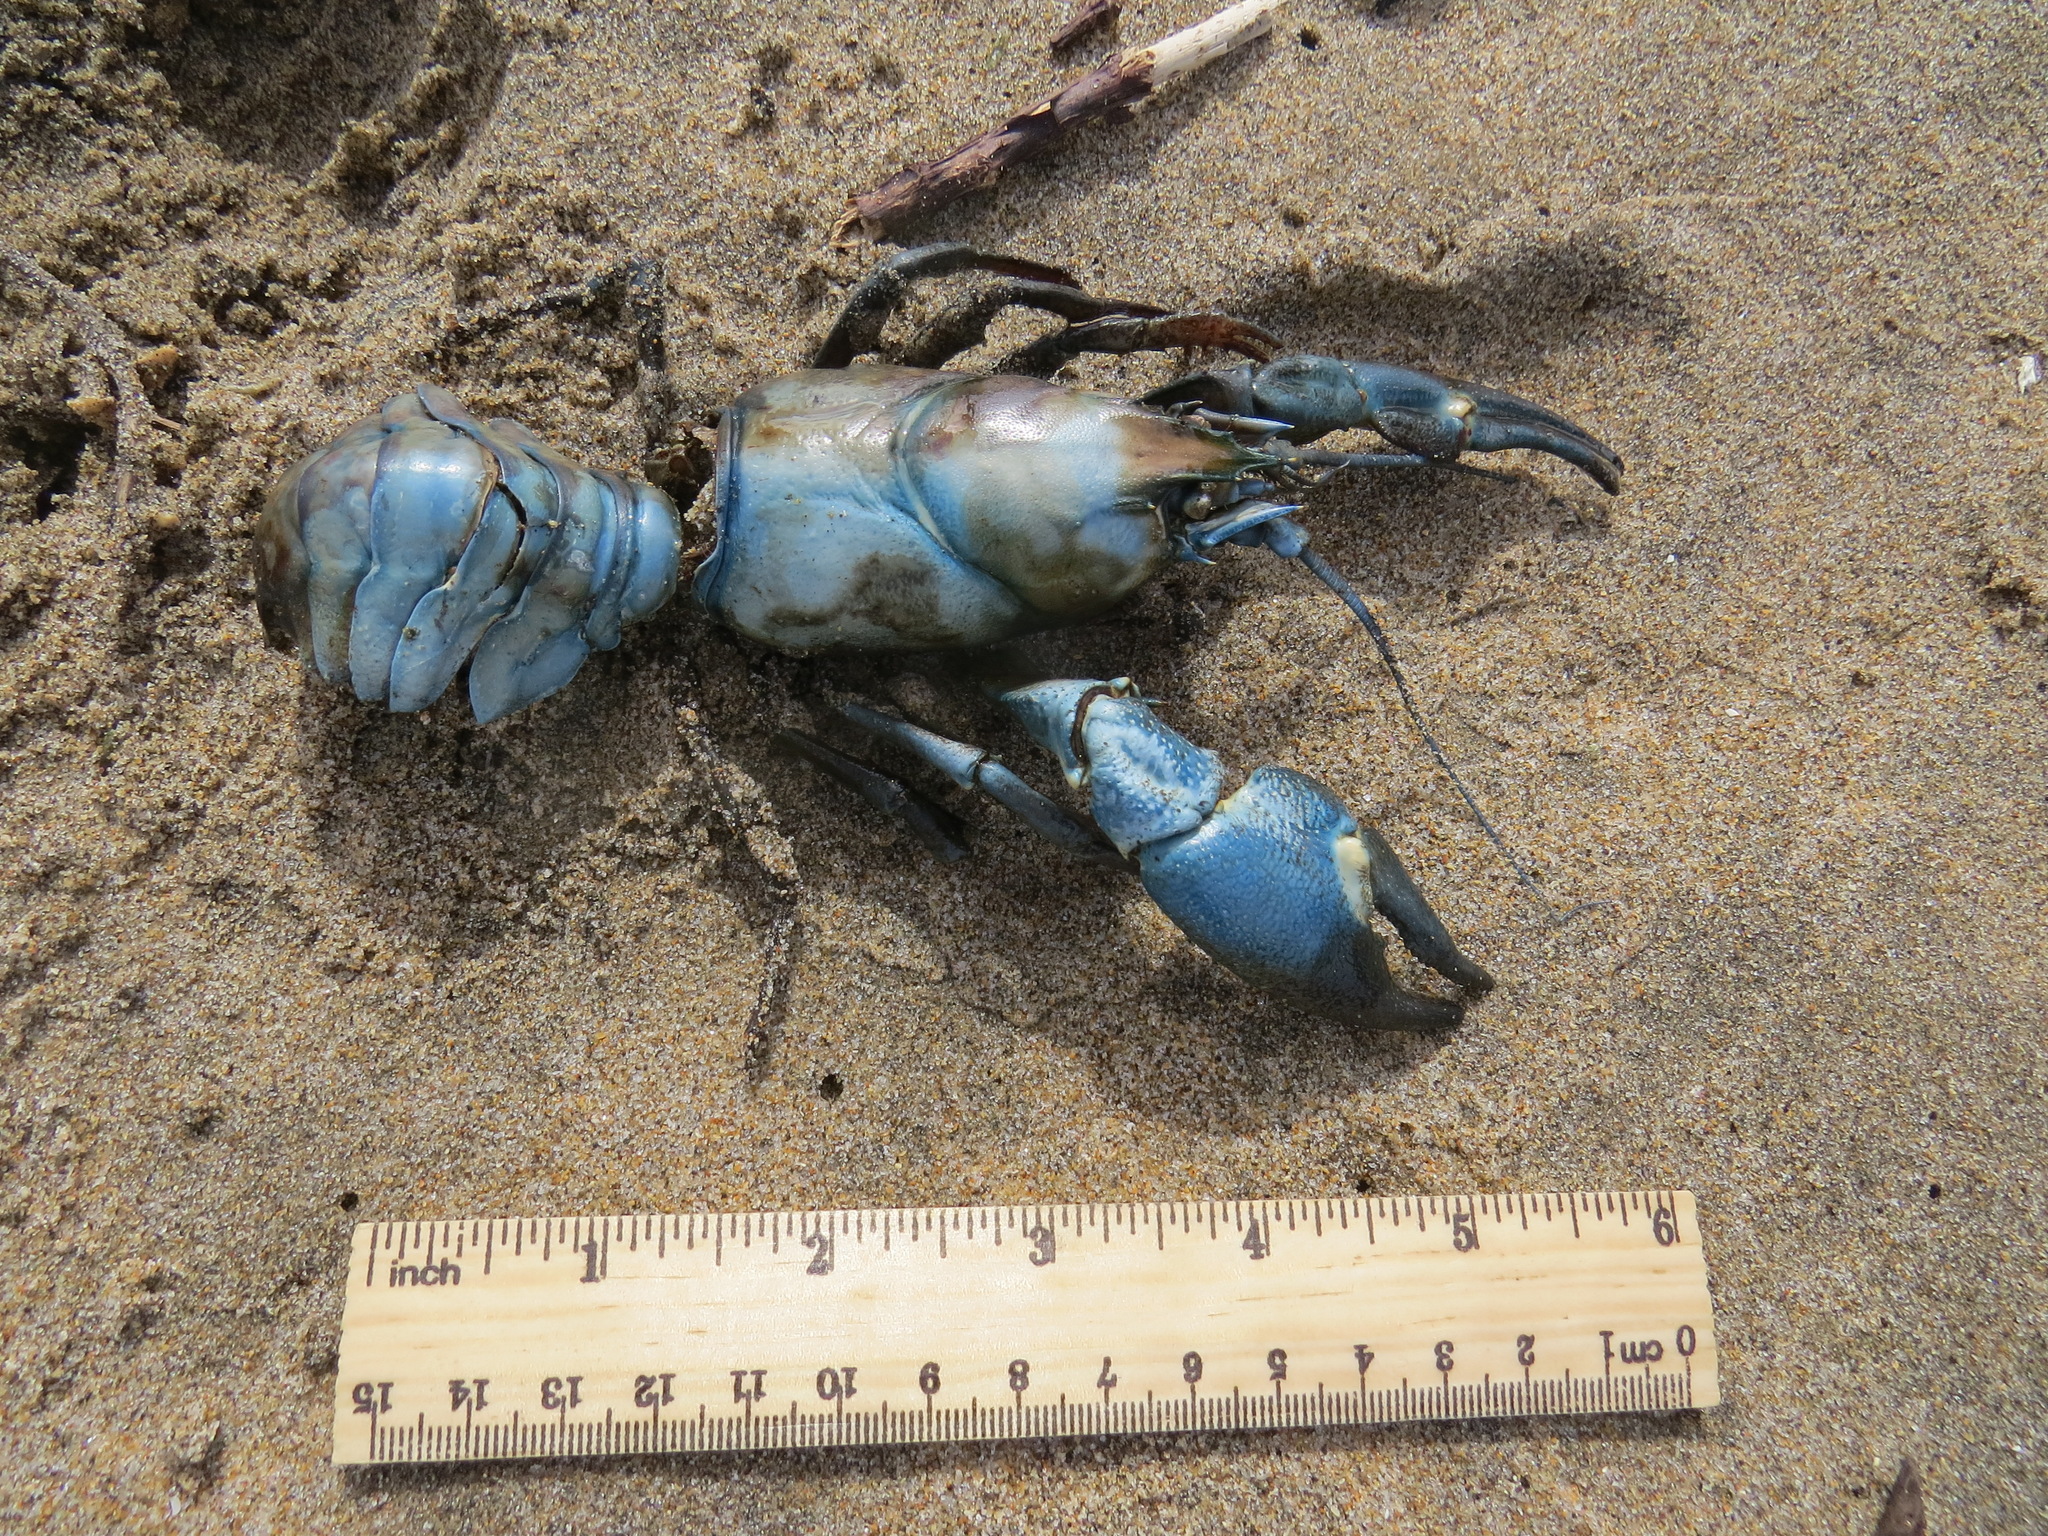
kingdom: Animalia
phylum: Arthropoda
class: Malacostraca
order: Decapoda
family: Astacidae
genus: Pacifastacus
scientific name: Pacifastacus leniusculus
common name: Signal crayfish
